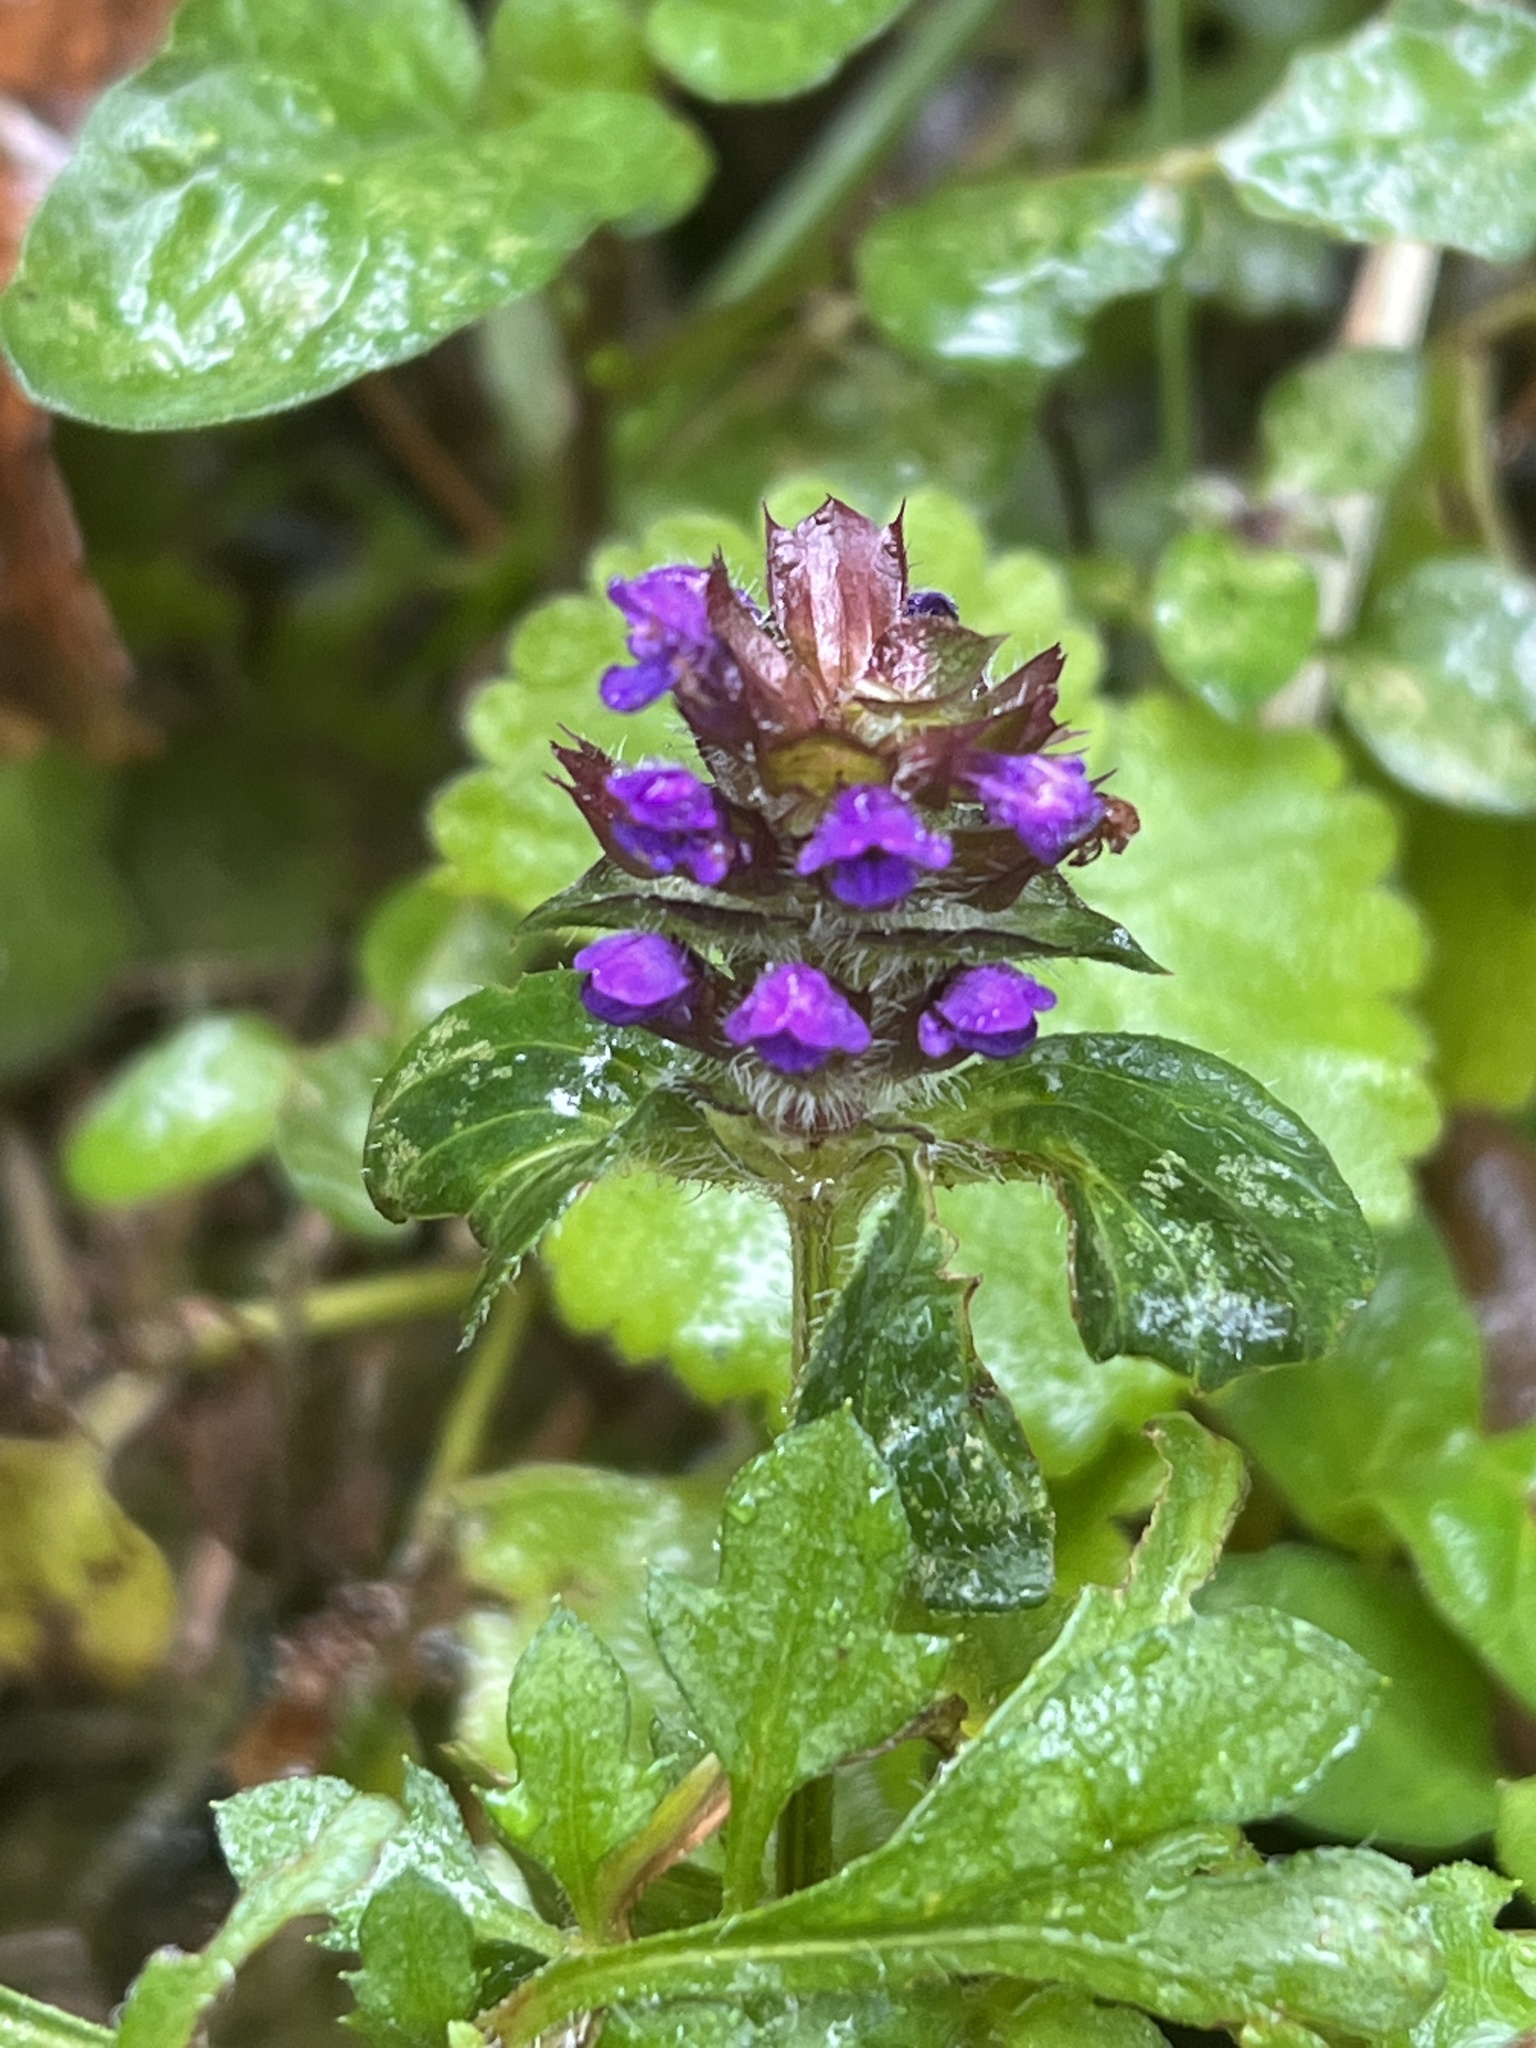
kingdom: Plantae
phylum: Tracheophyta
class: Magnoliopsida
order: Lamiales
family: Lamiaceae
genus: Prunella
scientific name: Prunella vulgaris
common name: Heal-all
